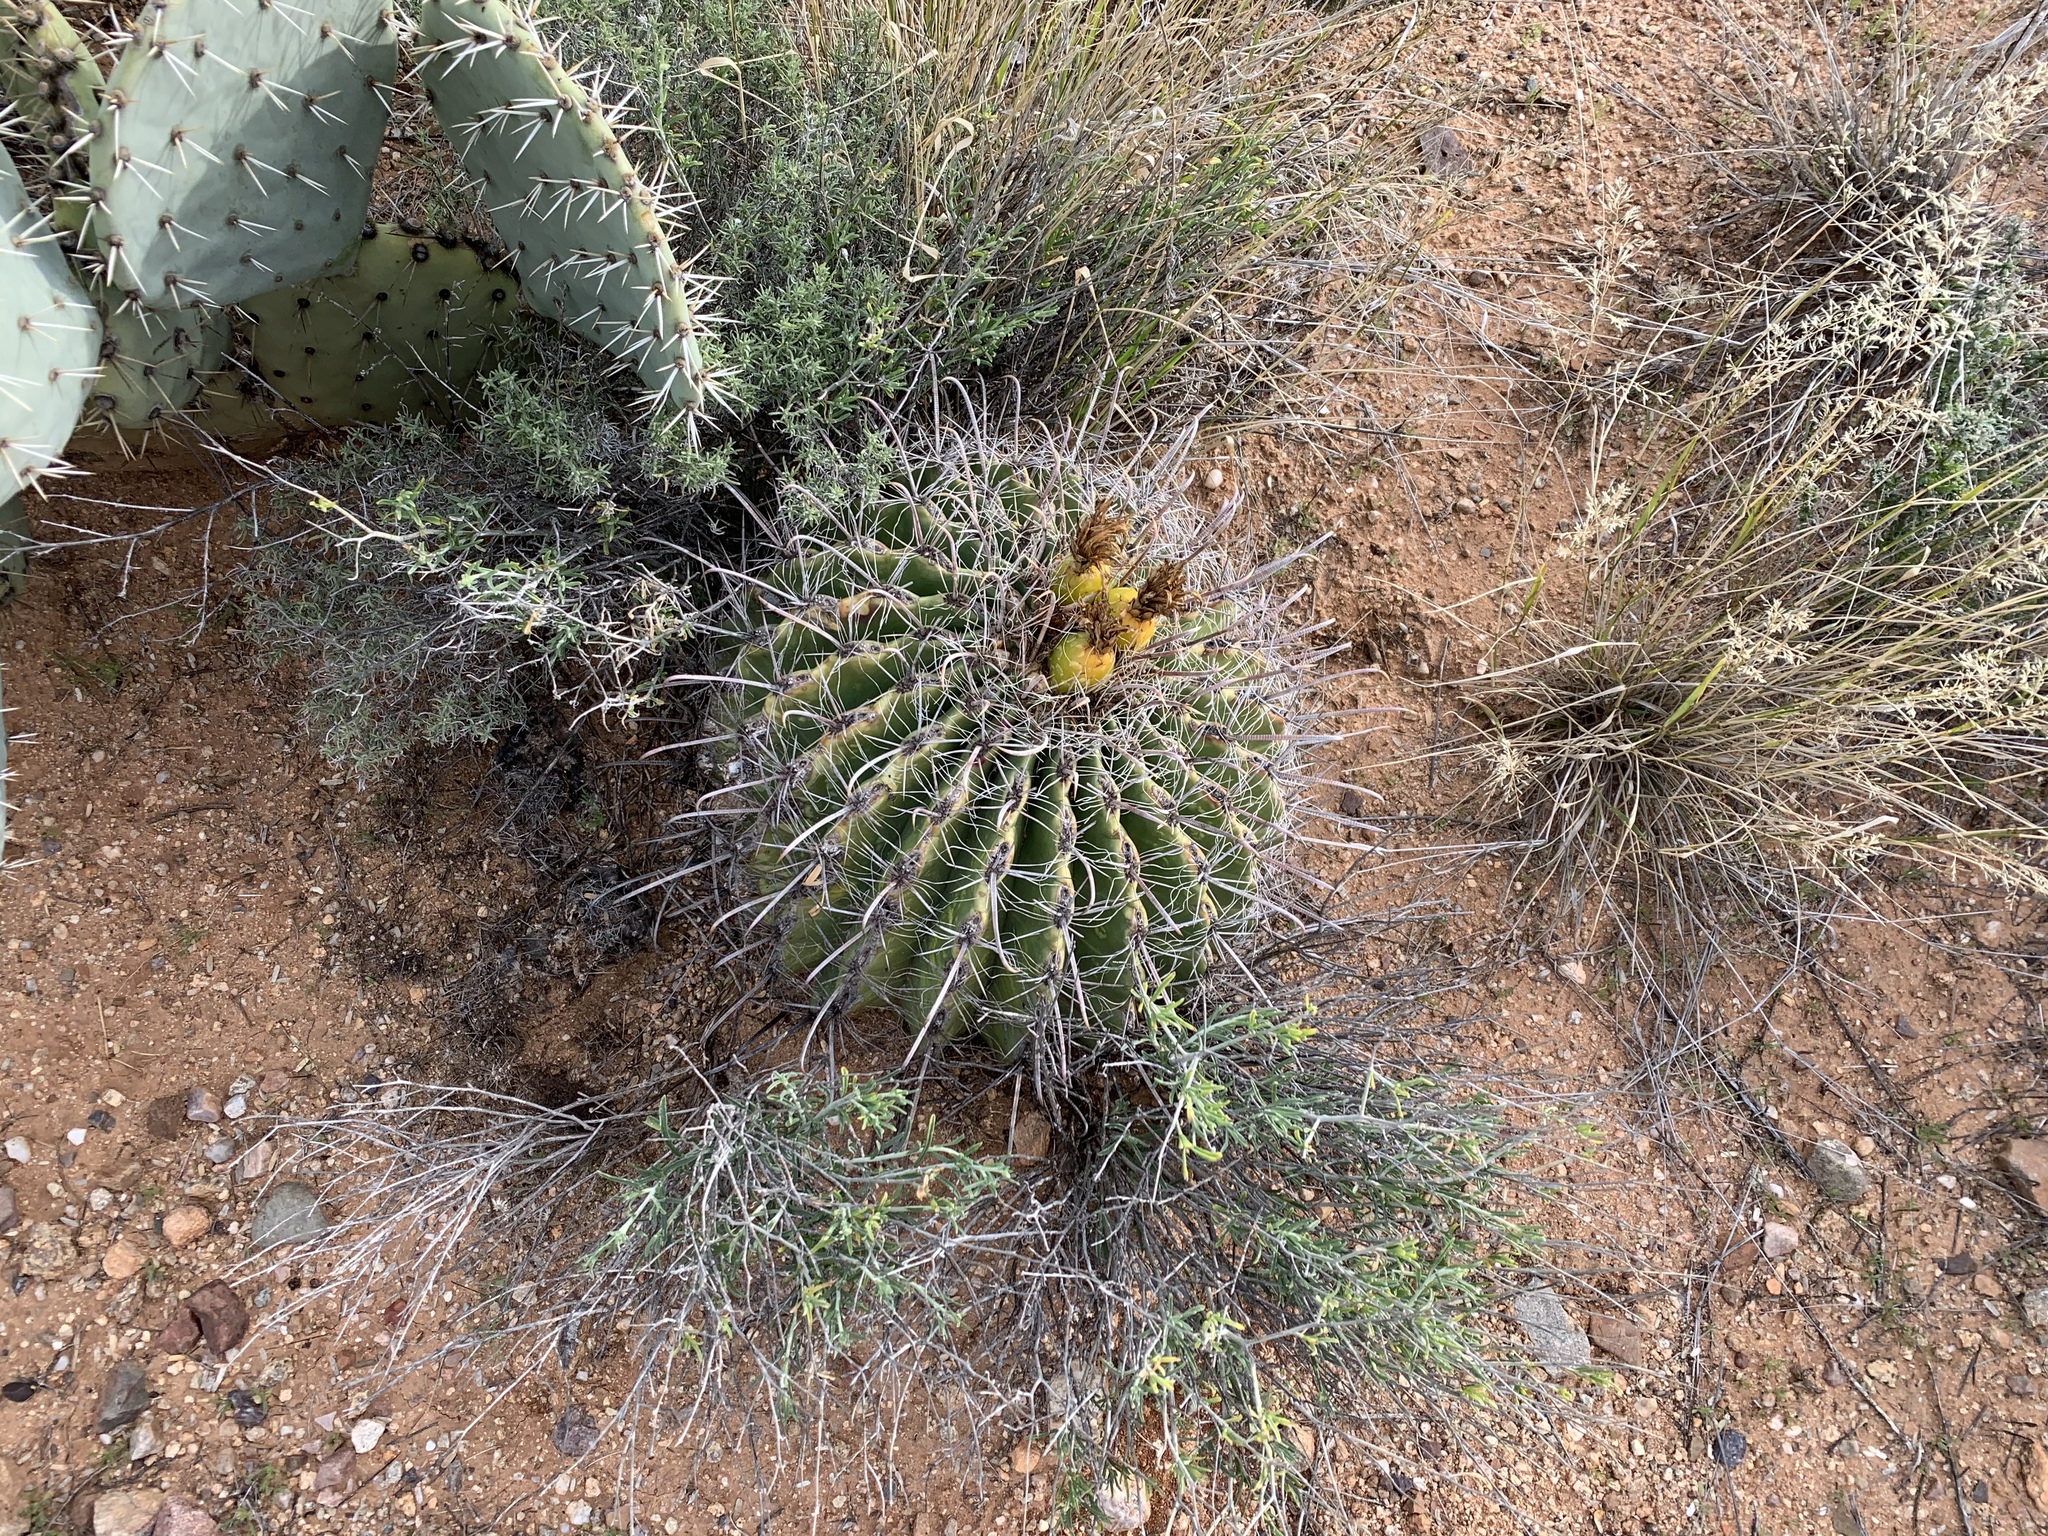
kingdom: Plantae
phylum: Tracheophyta
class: Magnoliopsida
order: Caryophyllales
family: Cactaceae
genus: Ferocactus
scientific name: Ferocactus wislizeni
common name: Candy barrel cactus
